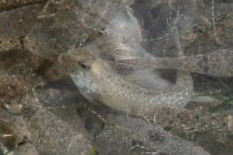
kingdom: Animalia
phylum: Chordata
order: Perciformes
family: Gobiidae
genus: Pomatoschistus
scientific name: Pomatoschistus
